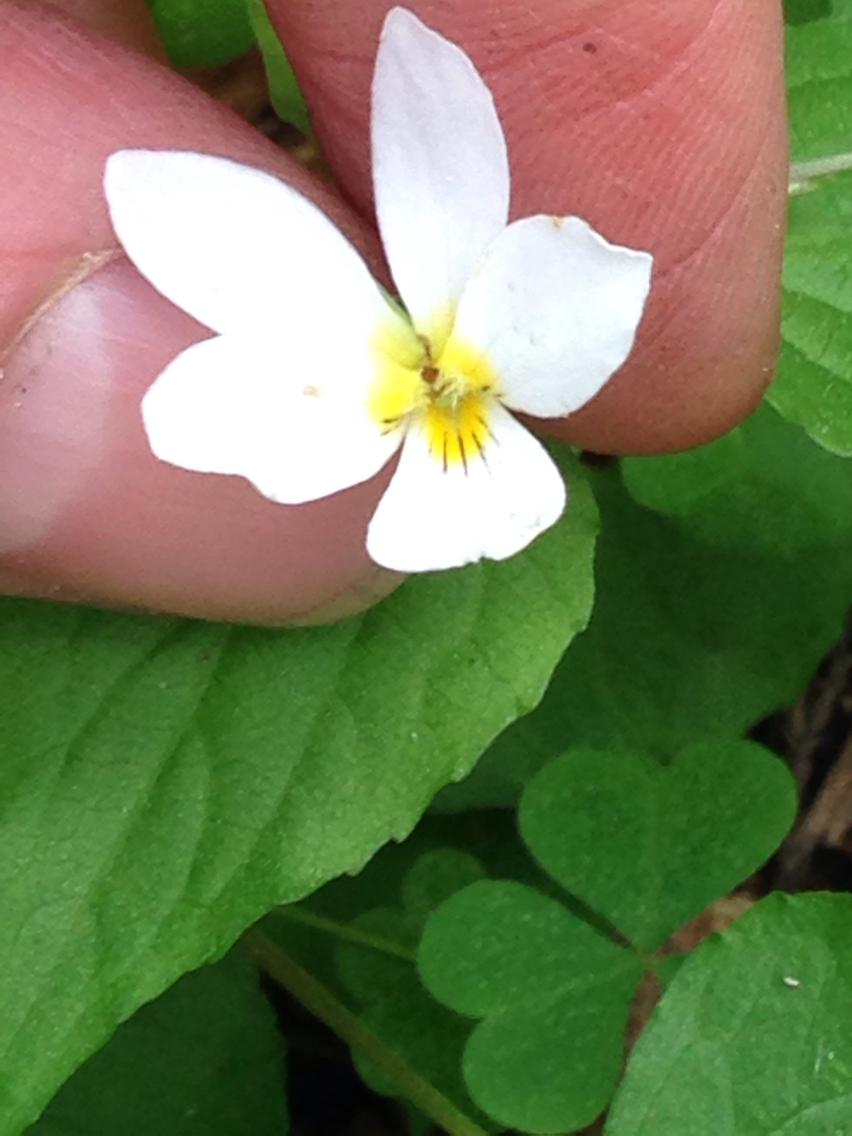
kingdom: Plantae
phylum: Tracheophyta
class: Magnoliopsida
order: Malpighiales
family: Violaceae
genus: Viola
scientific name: Viola canadensis
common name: Canada violet
